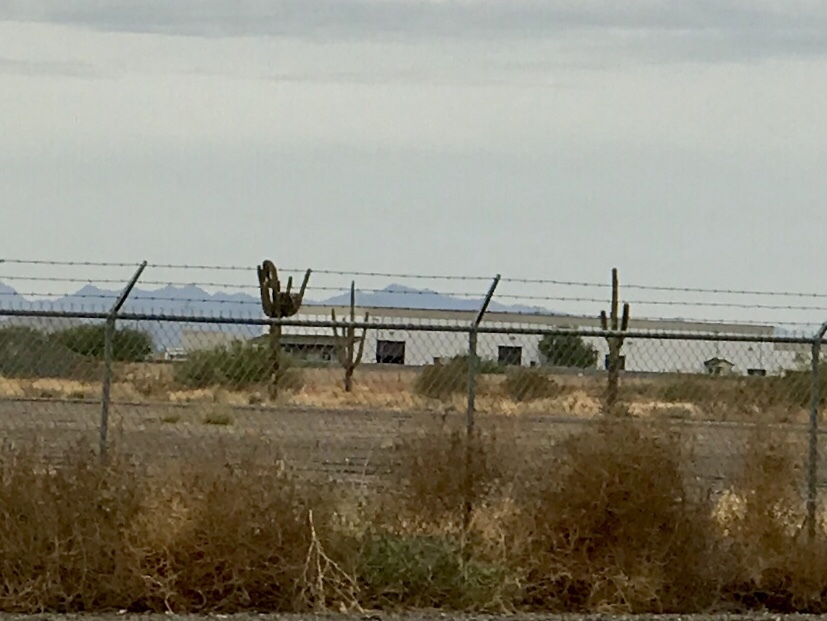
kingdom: Plantae
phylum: Tracheophyta
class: Magnoliopsida
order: Caryophyllales
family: Cactaceae
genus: Carnegiea
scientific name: Carnegiea gigantea
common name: Saguaro
